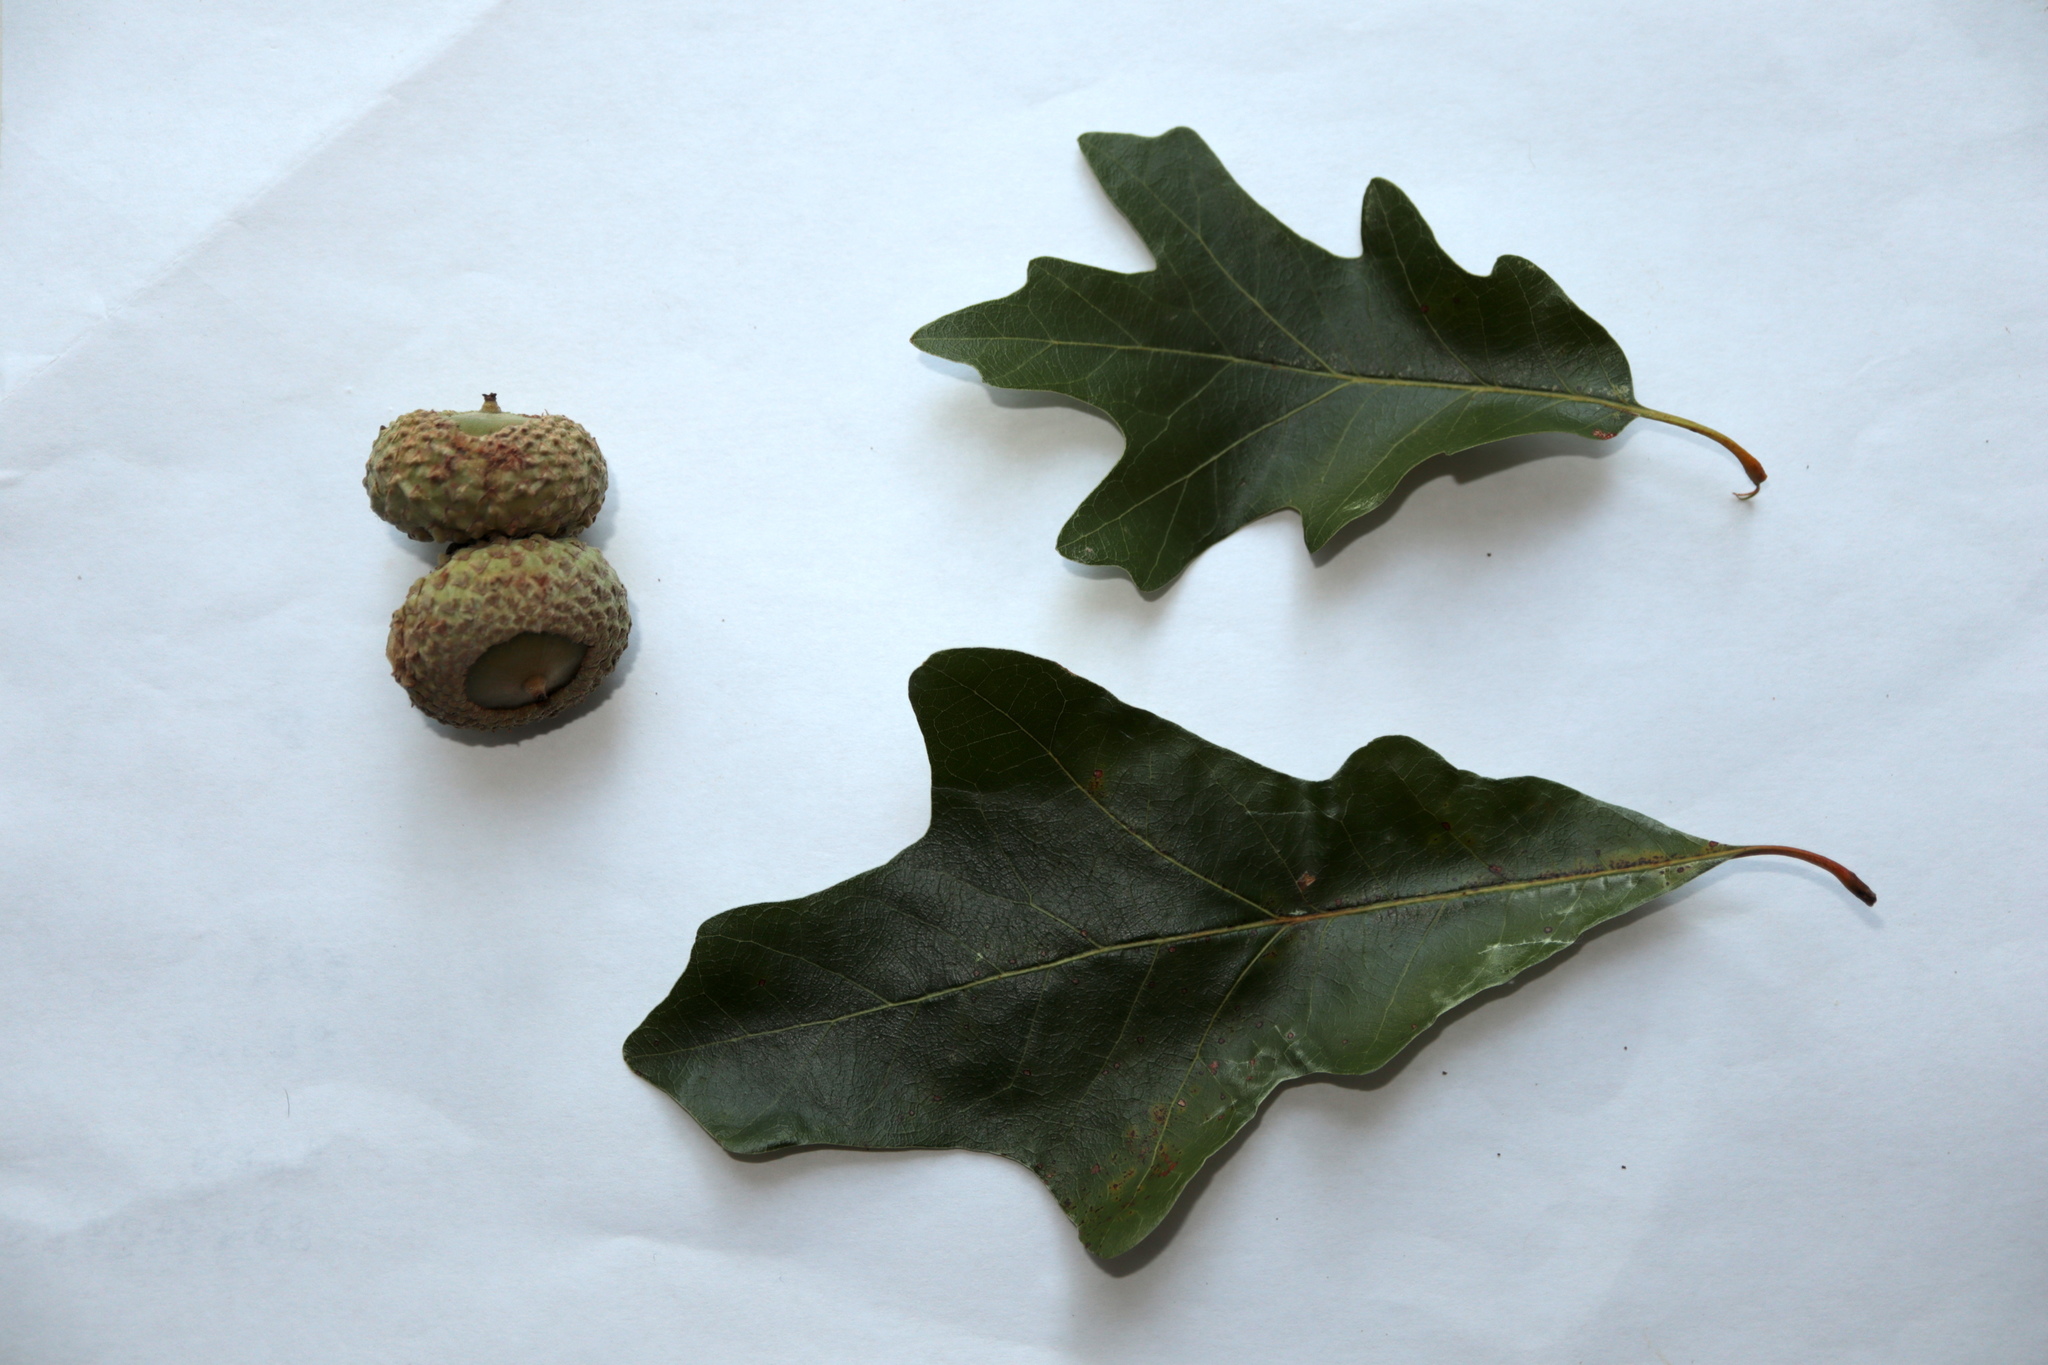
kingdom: Plantae
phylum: Tracheophyta
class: Magnoliopsida
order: Fagales
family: Fagaceae
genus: Quercus
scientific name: Quercus lyrata
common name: Overcup oak
